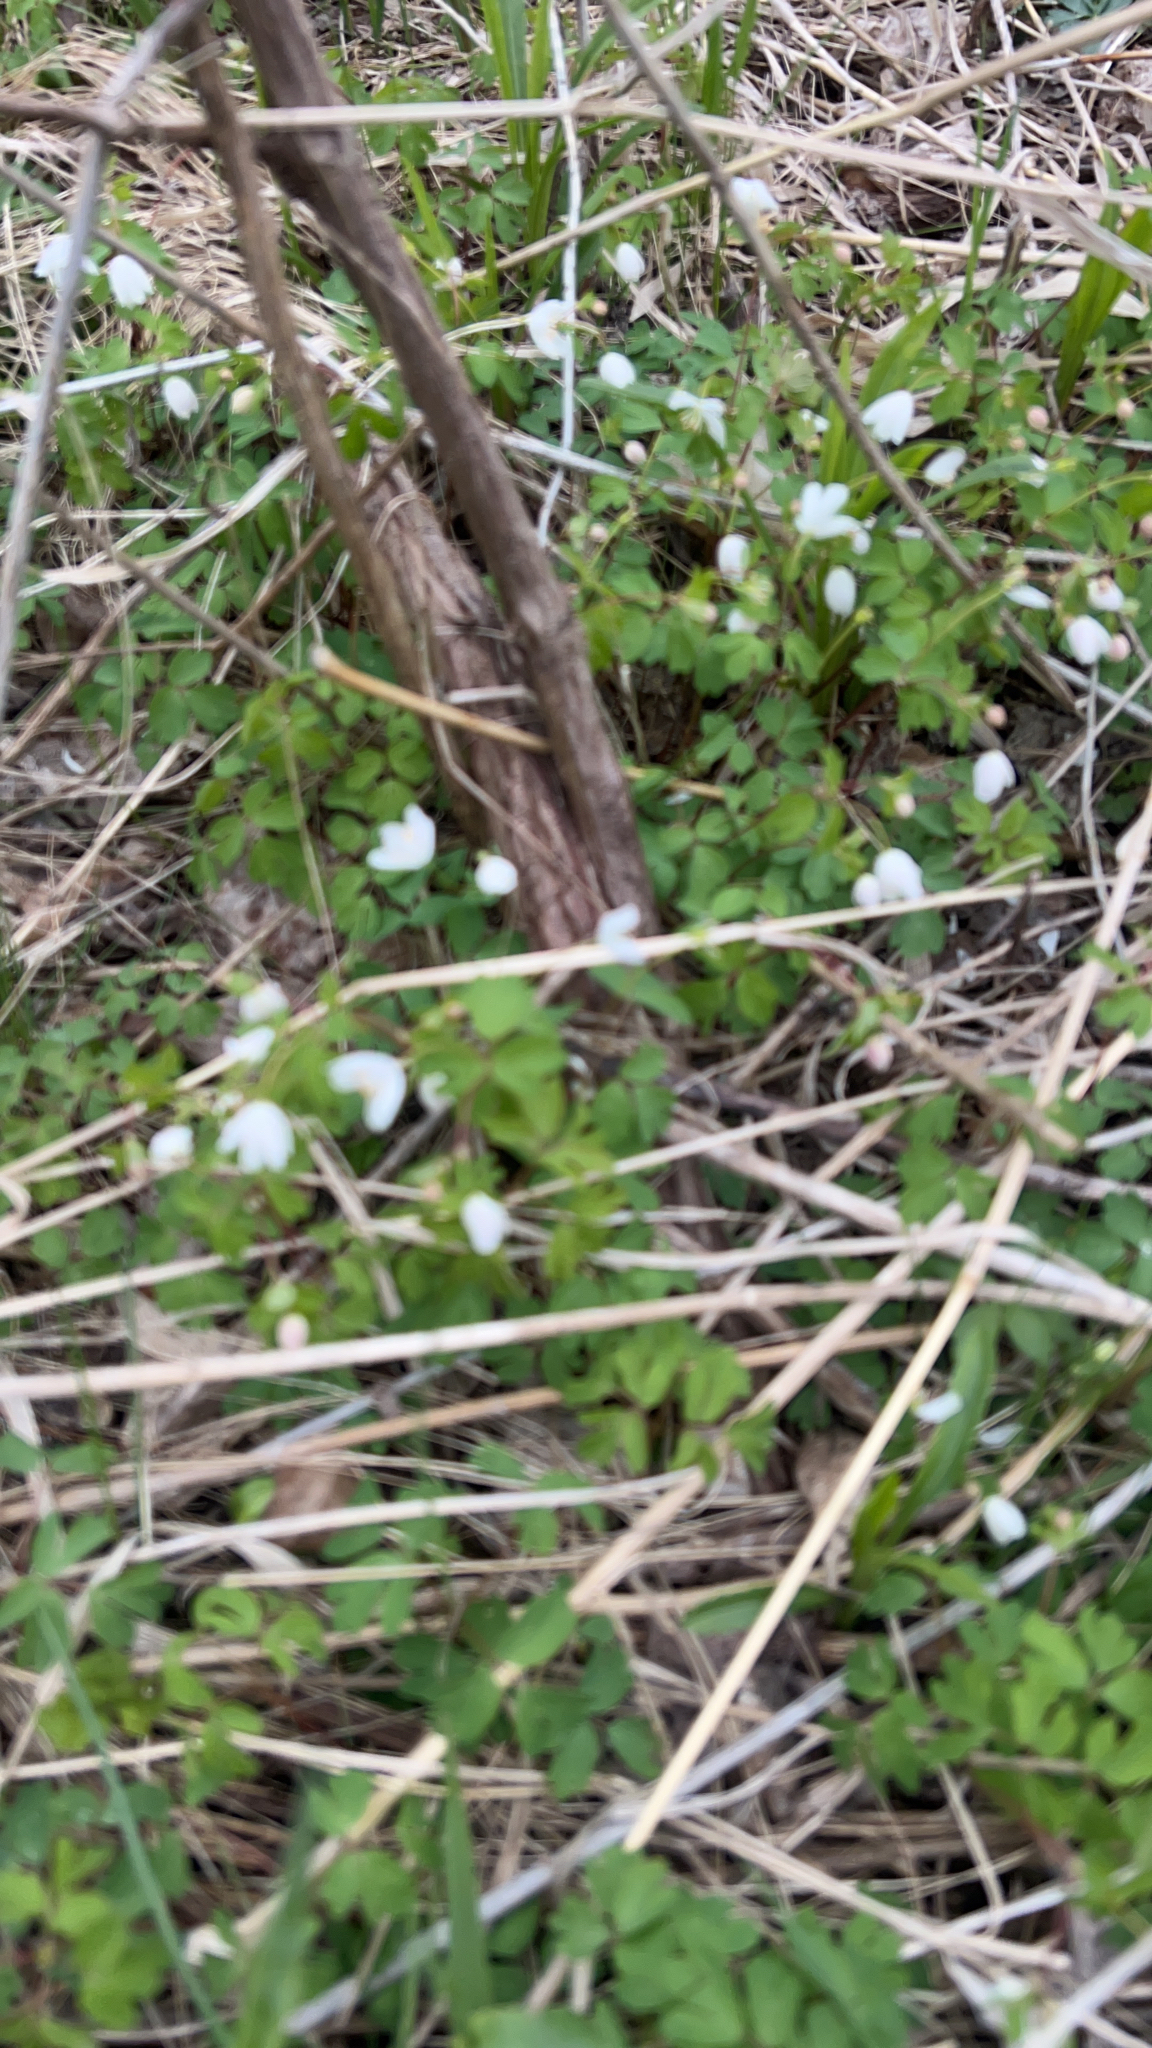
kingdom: Plantae
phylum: Tracheophyta
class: Magnoliopsida
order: Ranunculales
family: Ranunculaceae
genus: Enemion
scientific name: Enemion biternatum
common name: Eastern false rue-anemone
